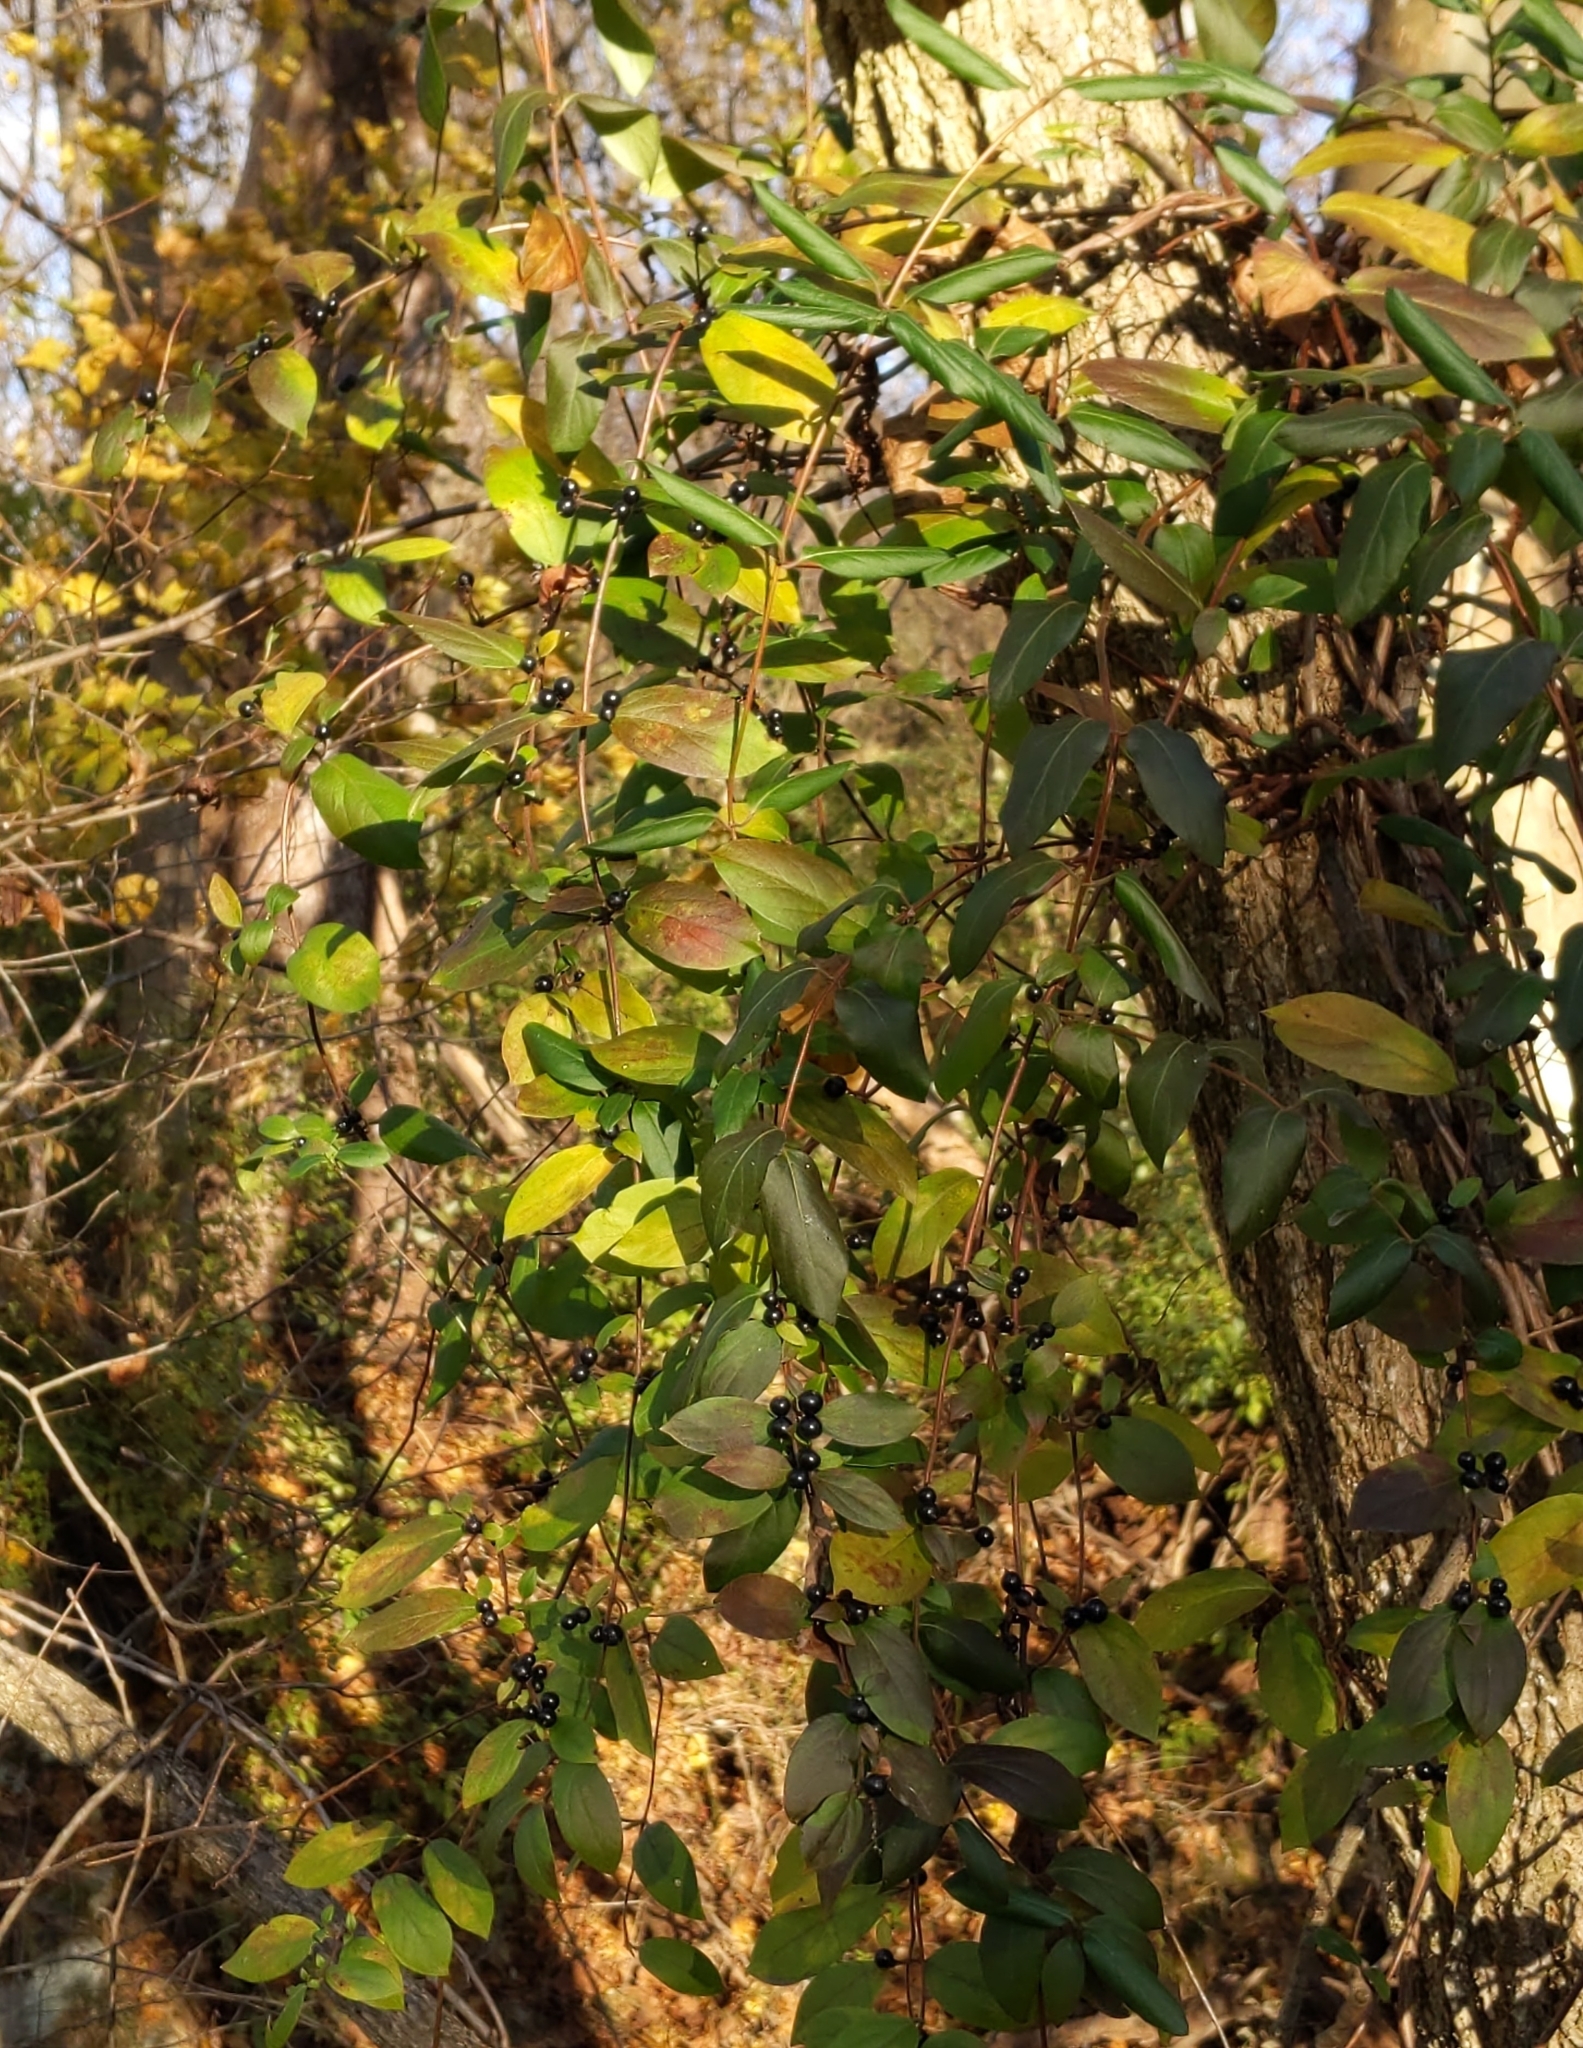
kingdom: Plantae
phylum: Tracheophyta
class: Magnoliopsida
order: Dipsacales
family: Caprifoliaceae
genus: Lonicera
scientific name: Lonicera japonica
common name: Japanese honeysuckle
